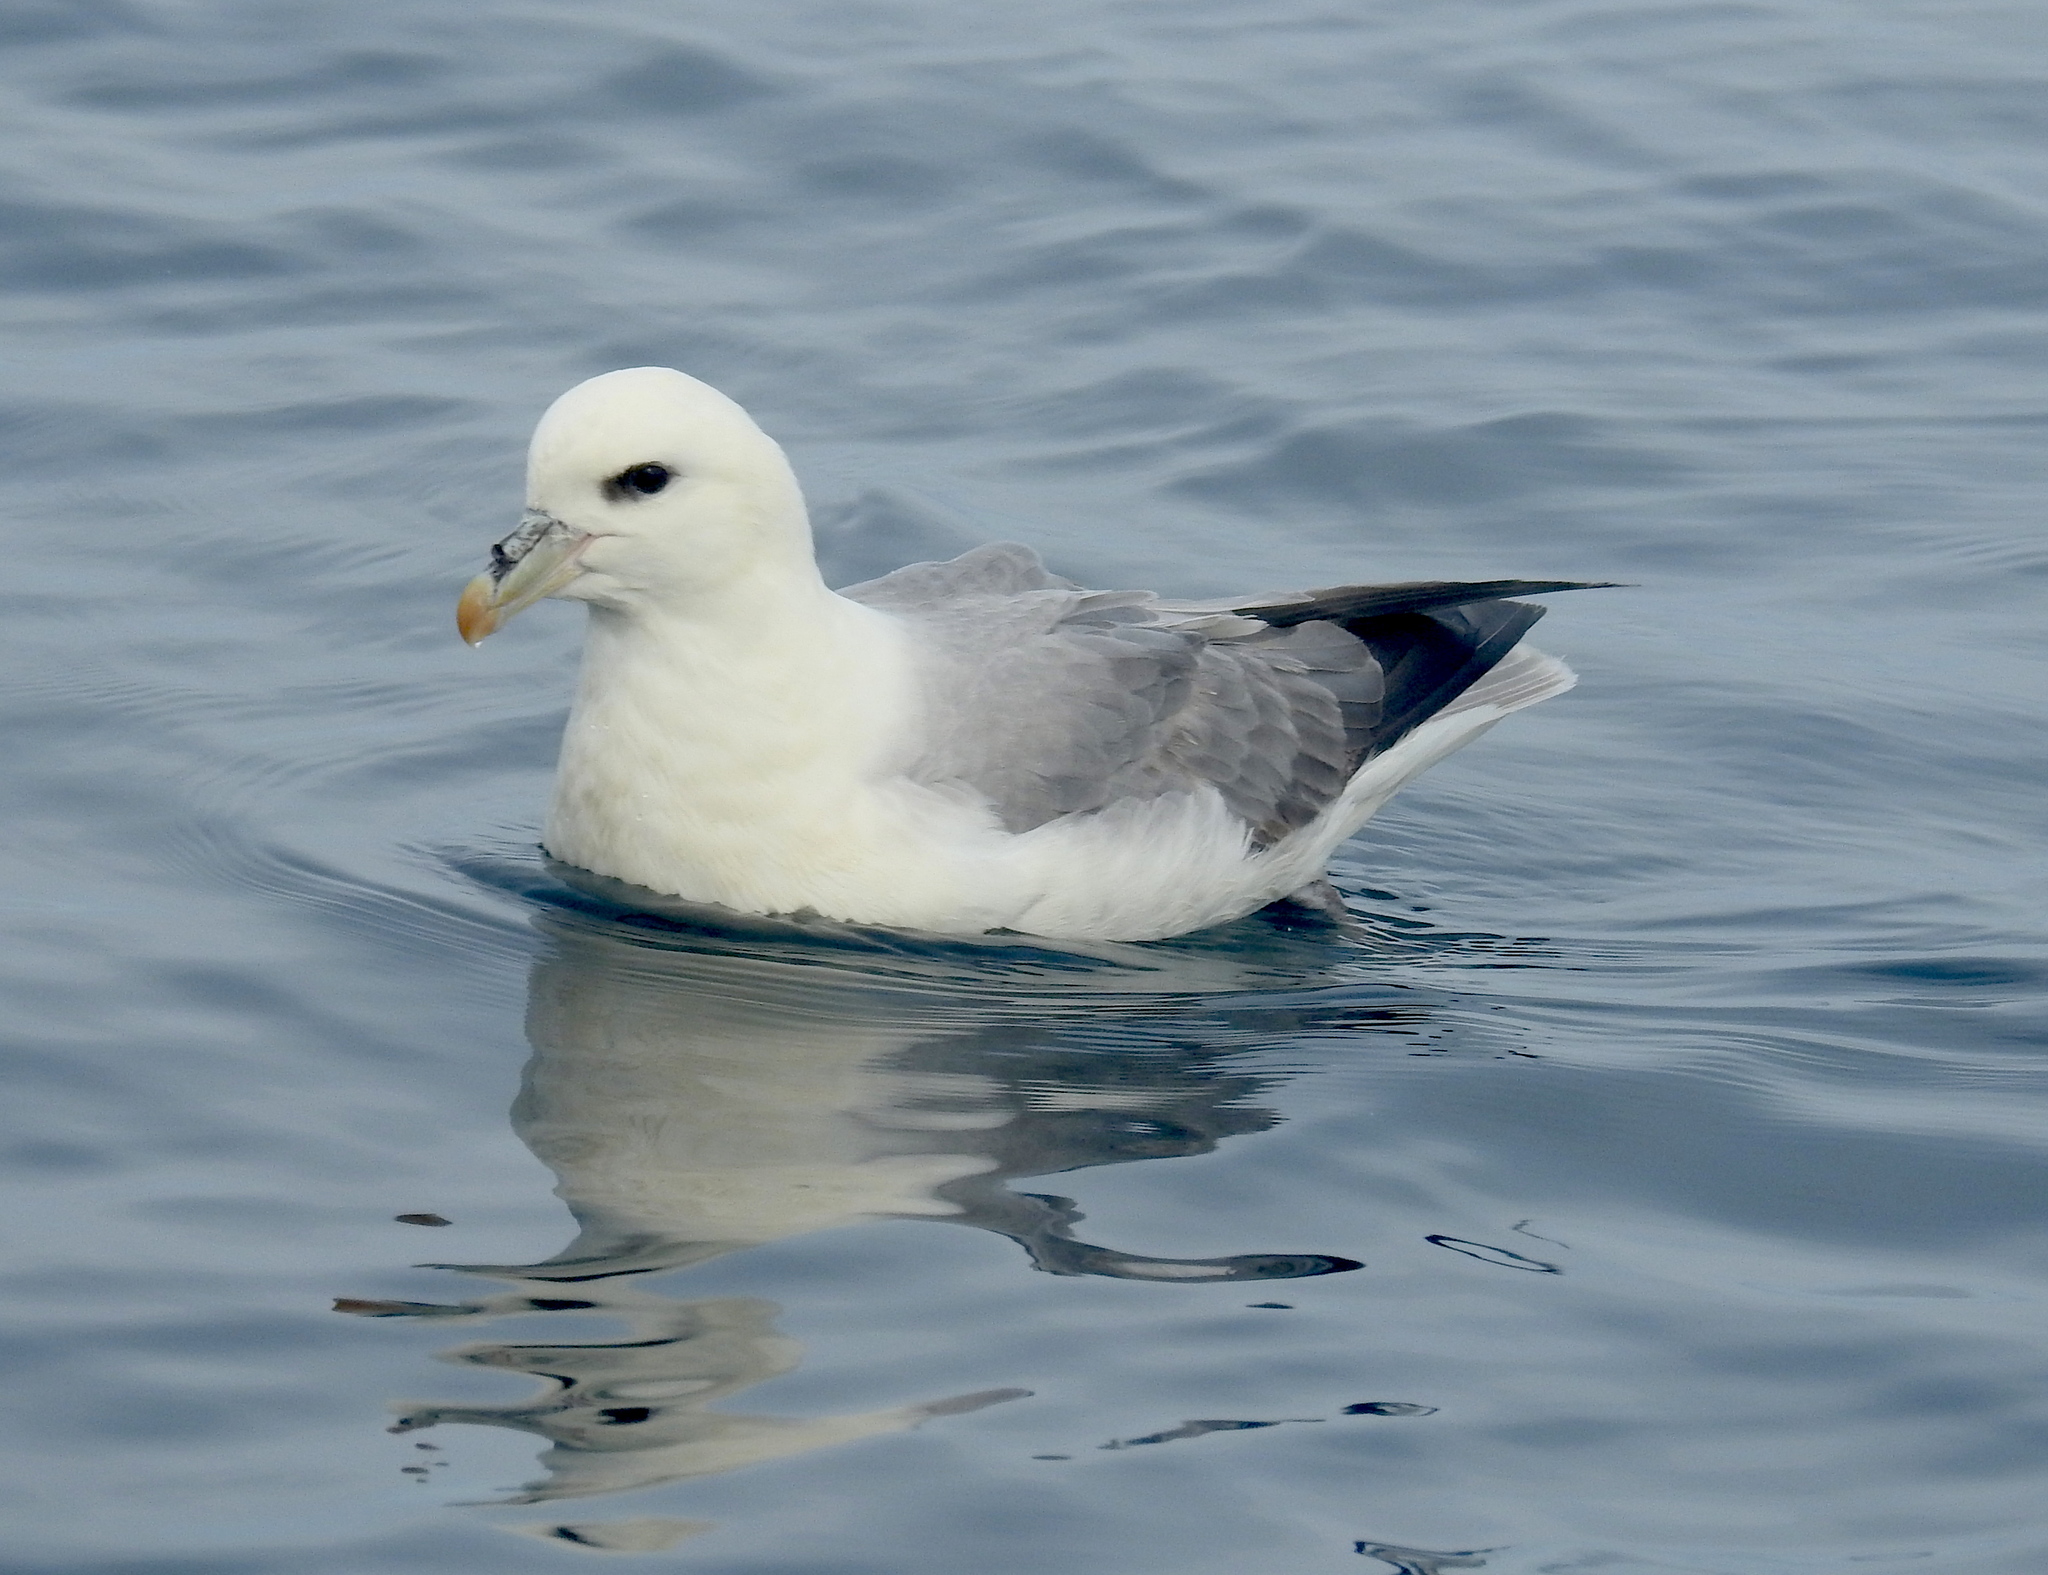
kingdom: Animalia
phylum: Chordata
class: Aves
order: Procellariiformes
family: Procellariidae
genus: Fulmarus
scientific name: Fulmarus glacialis
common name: Northern fulmar
